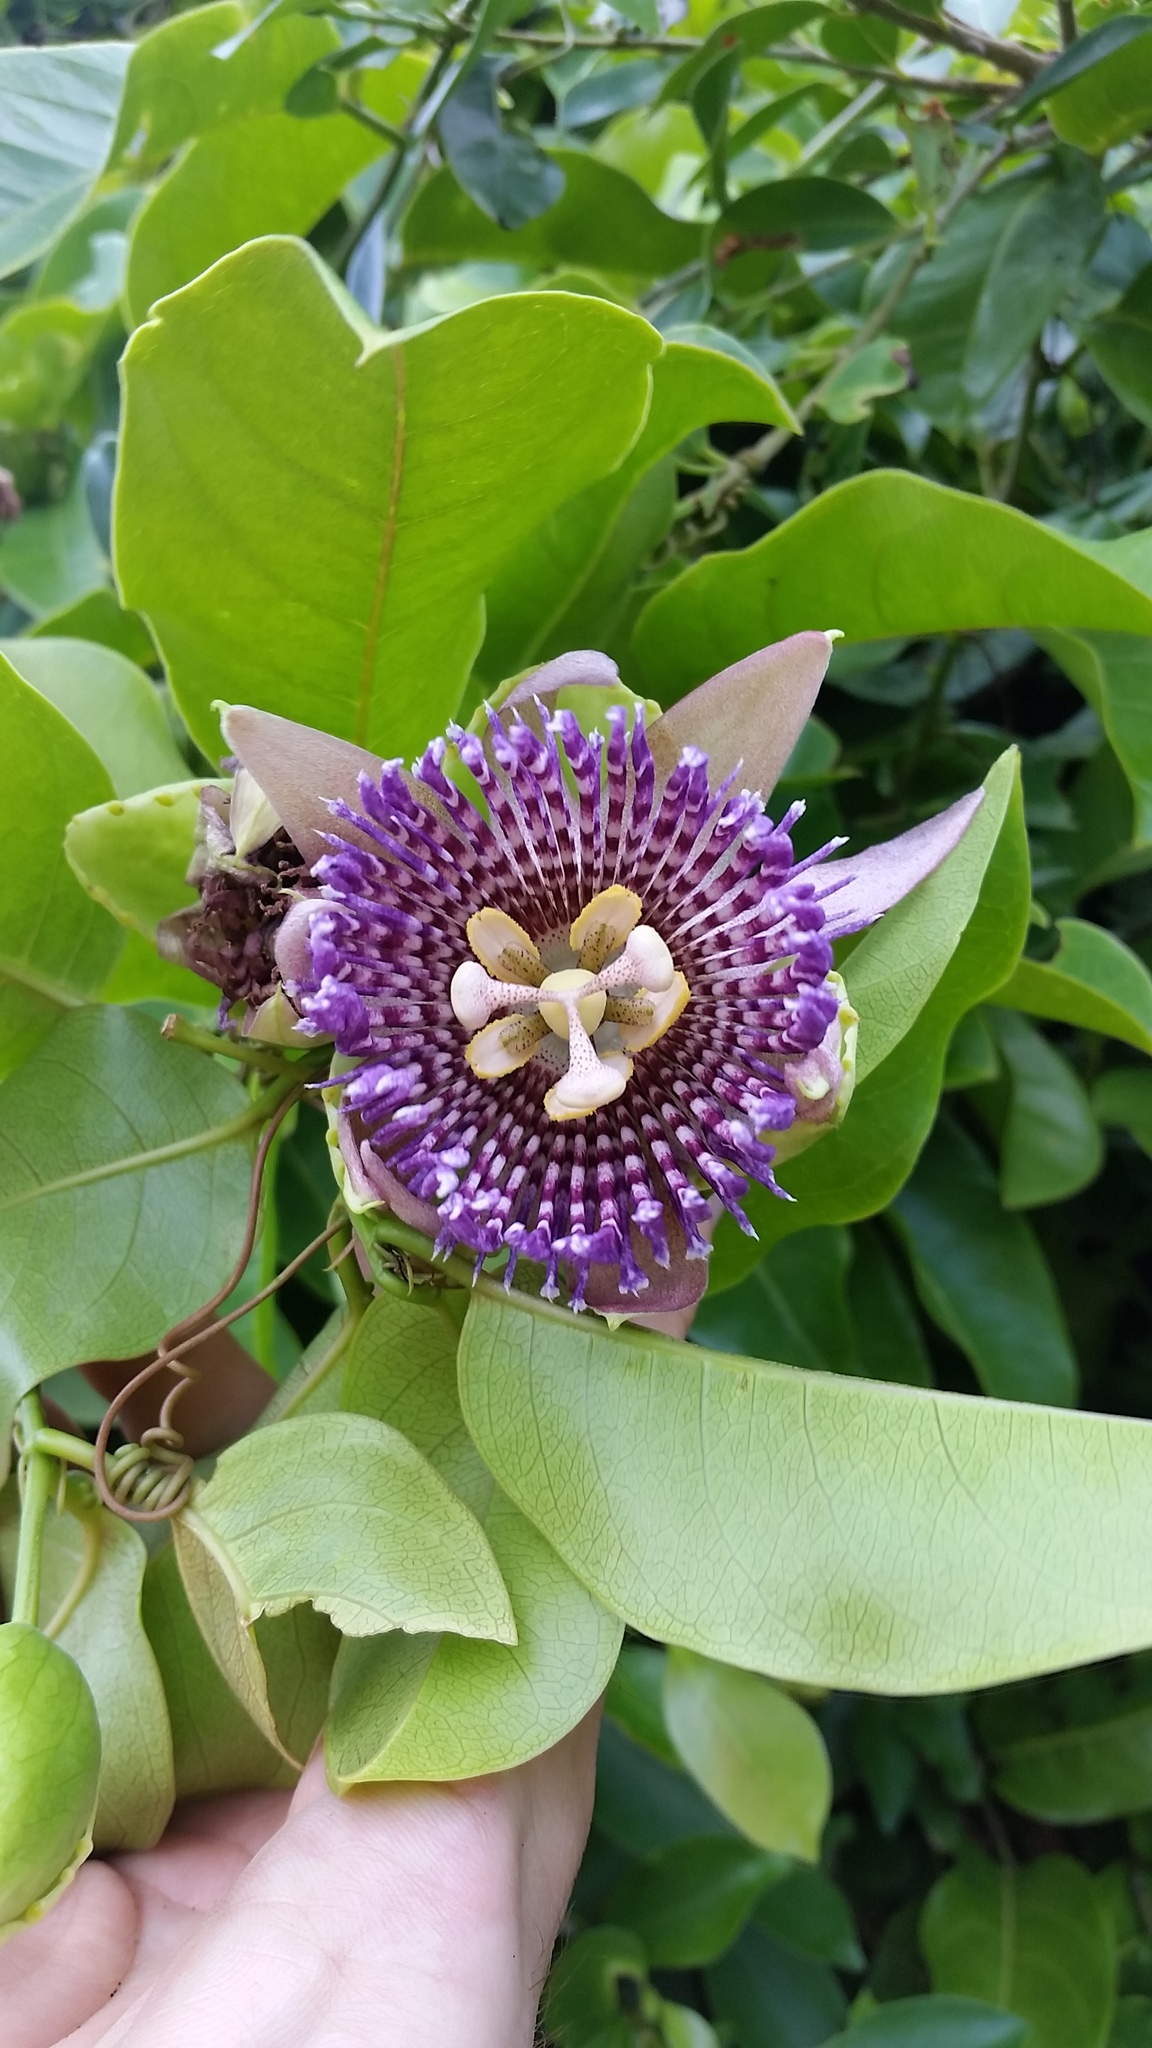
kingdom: Plantae
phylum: Tracheophyta
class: Magnoliopsida
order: Malpighiales
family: Passifloraceae
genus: Passiflora
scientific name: Passiflora laurifolia
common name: Bell apple
